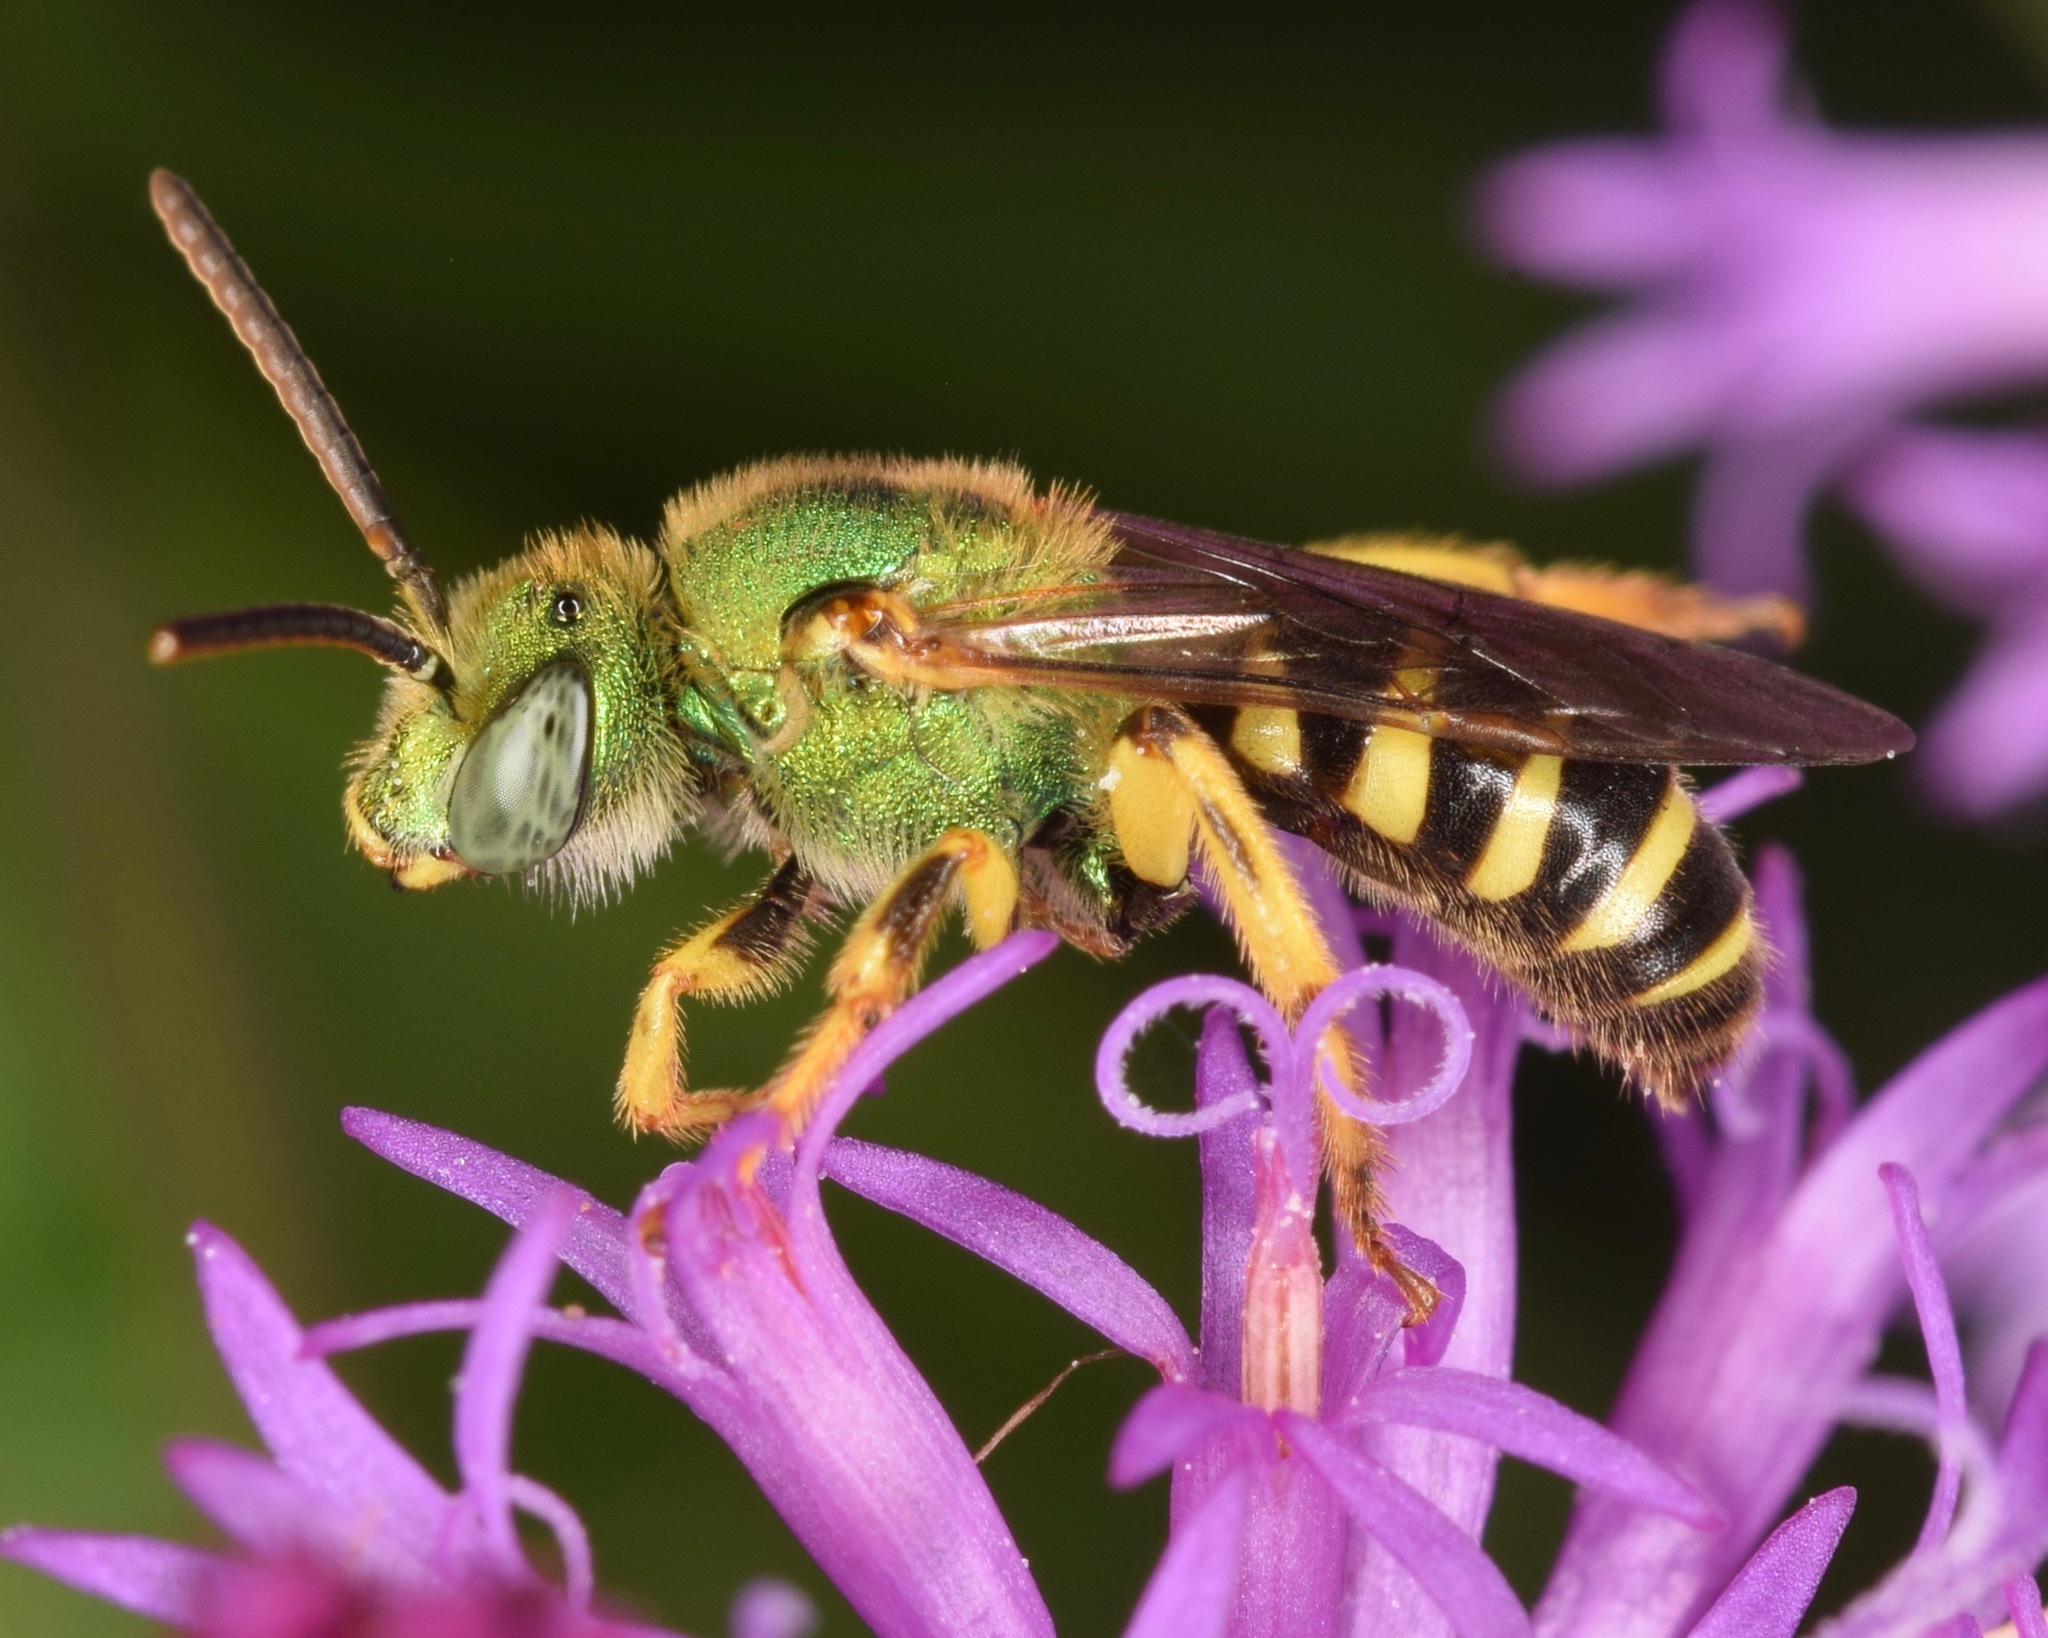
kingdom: Animalia
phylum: Arthropoda
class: Insecta
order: Hymenoptera
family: Halictidae
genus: Agapostemon
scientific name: Agapostemon virescens
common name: Bicolored striped sweat bee
